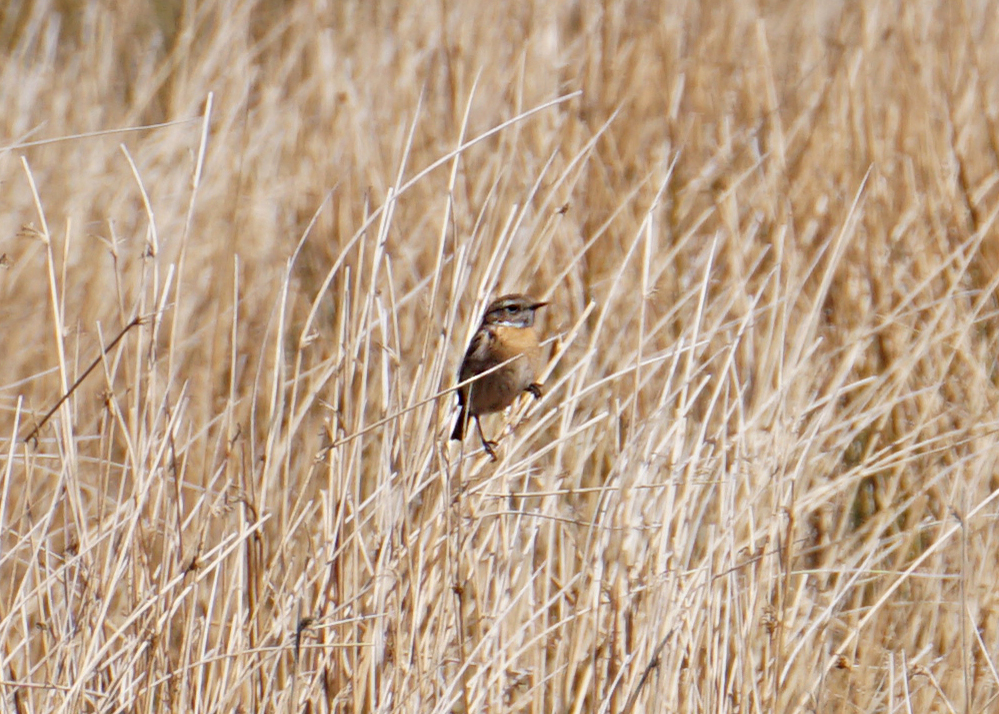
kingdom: Animalia
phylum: Chordata
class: Aves
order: Passeriformes
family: Muscicapidae
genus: Saxicola
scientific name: Saxicola rubicola
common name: European stonechat
